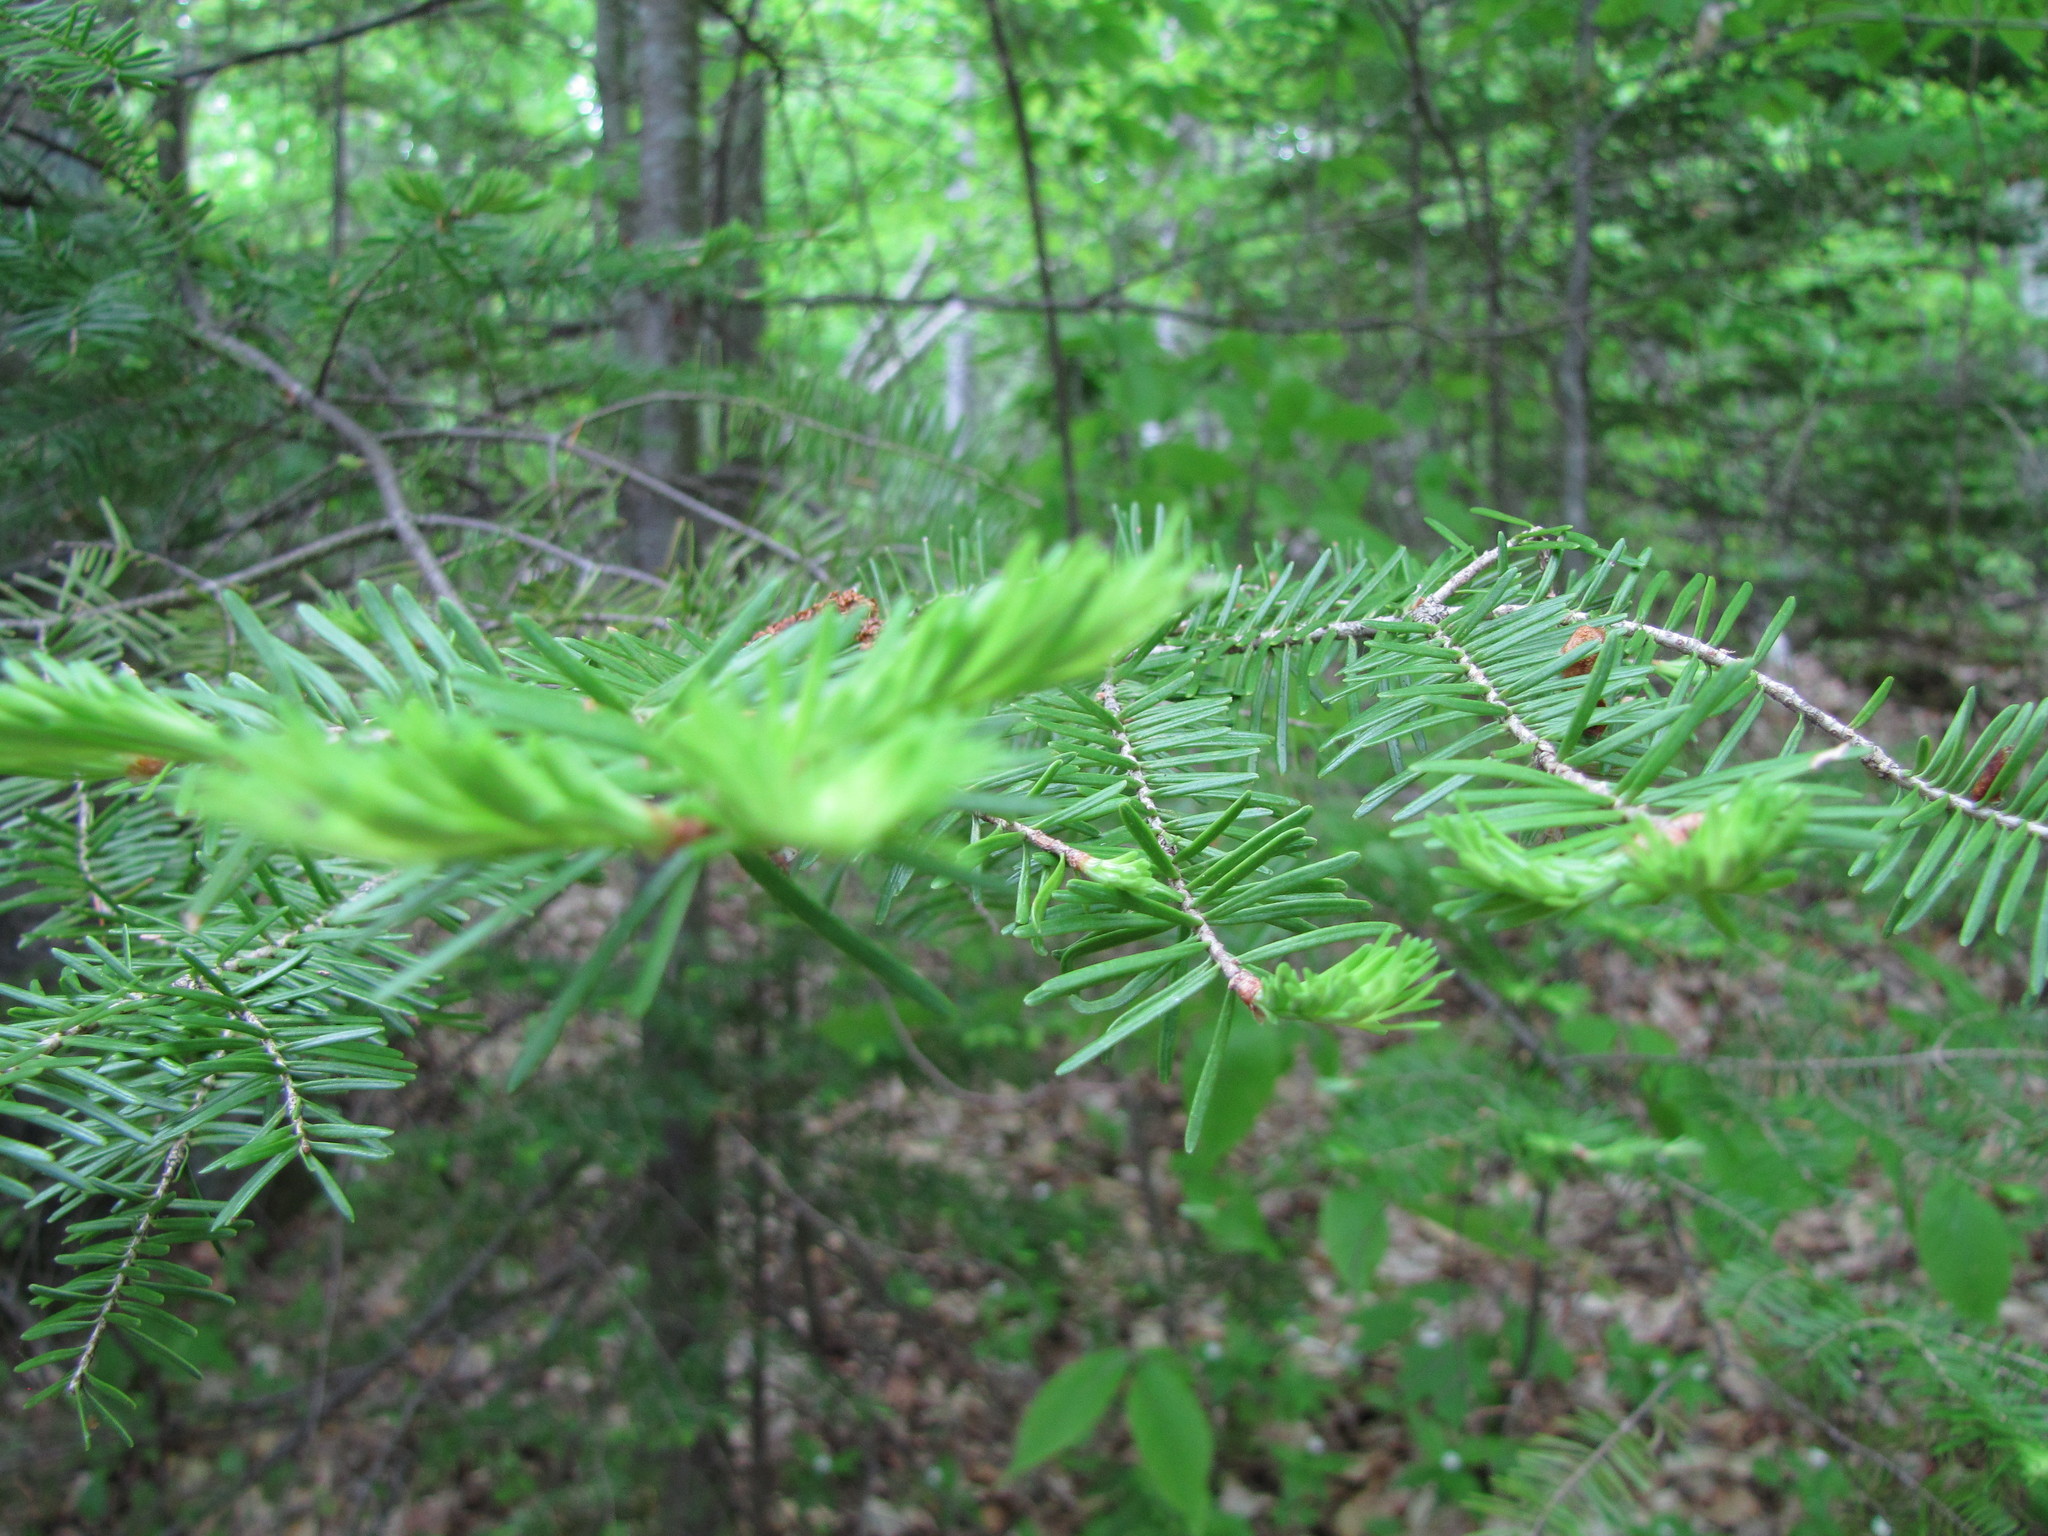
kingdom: Plantae
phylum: Tracheophyta
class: Pinopsida
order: Pinales
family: Pinaceae
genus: Abies
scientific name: Abies balsamea
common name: Balsam fir
